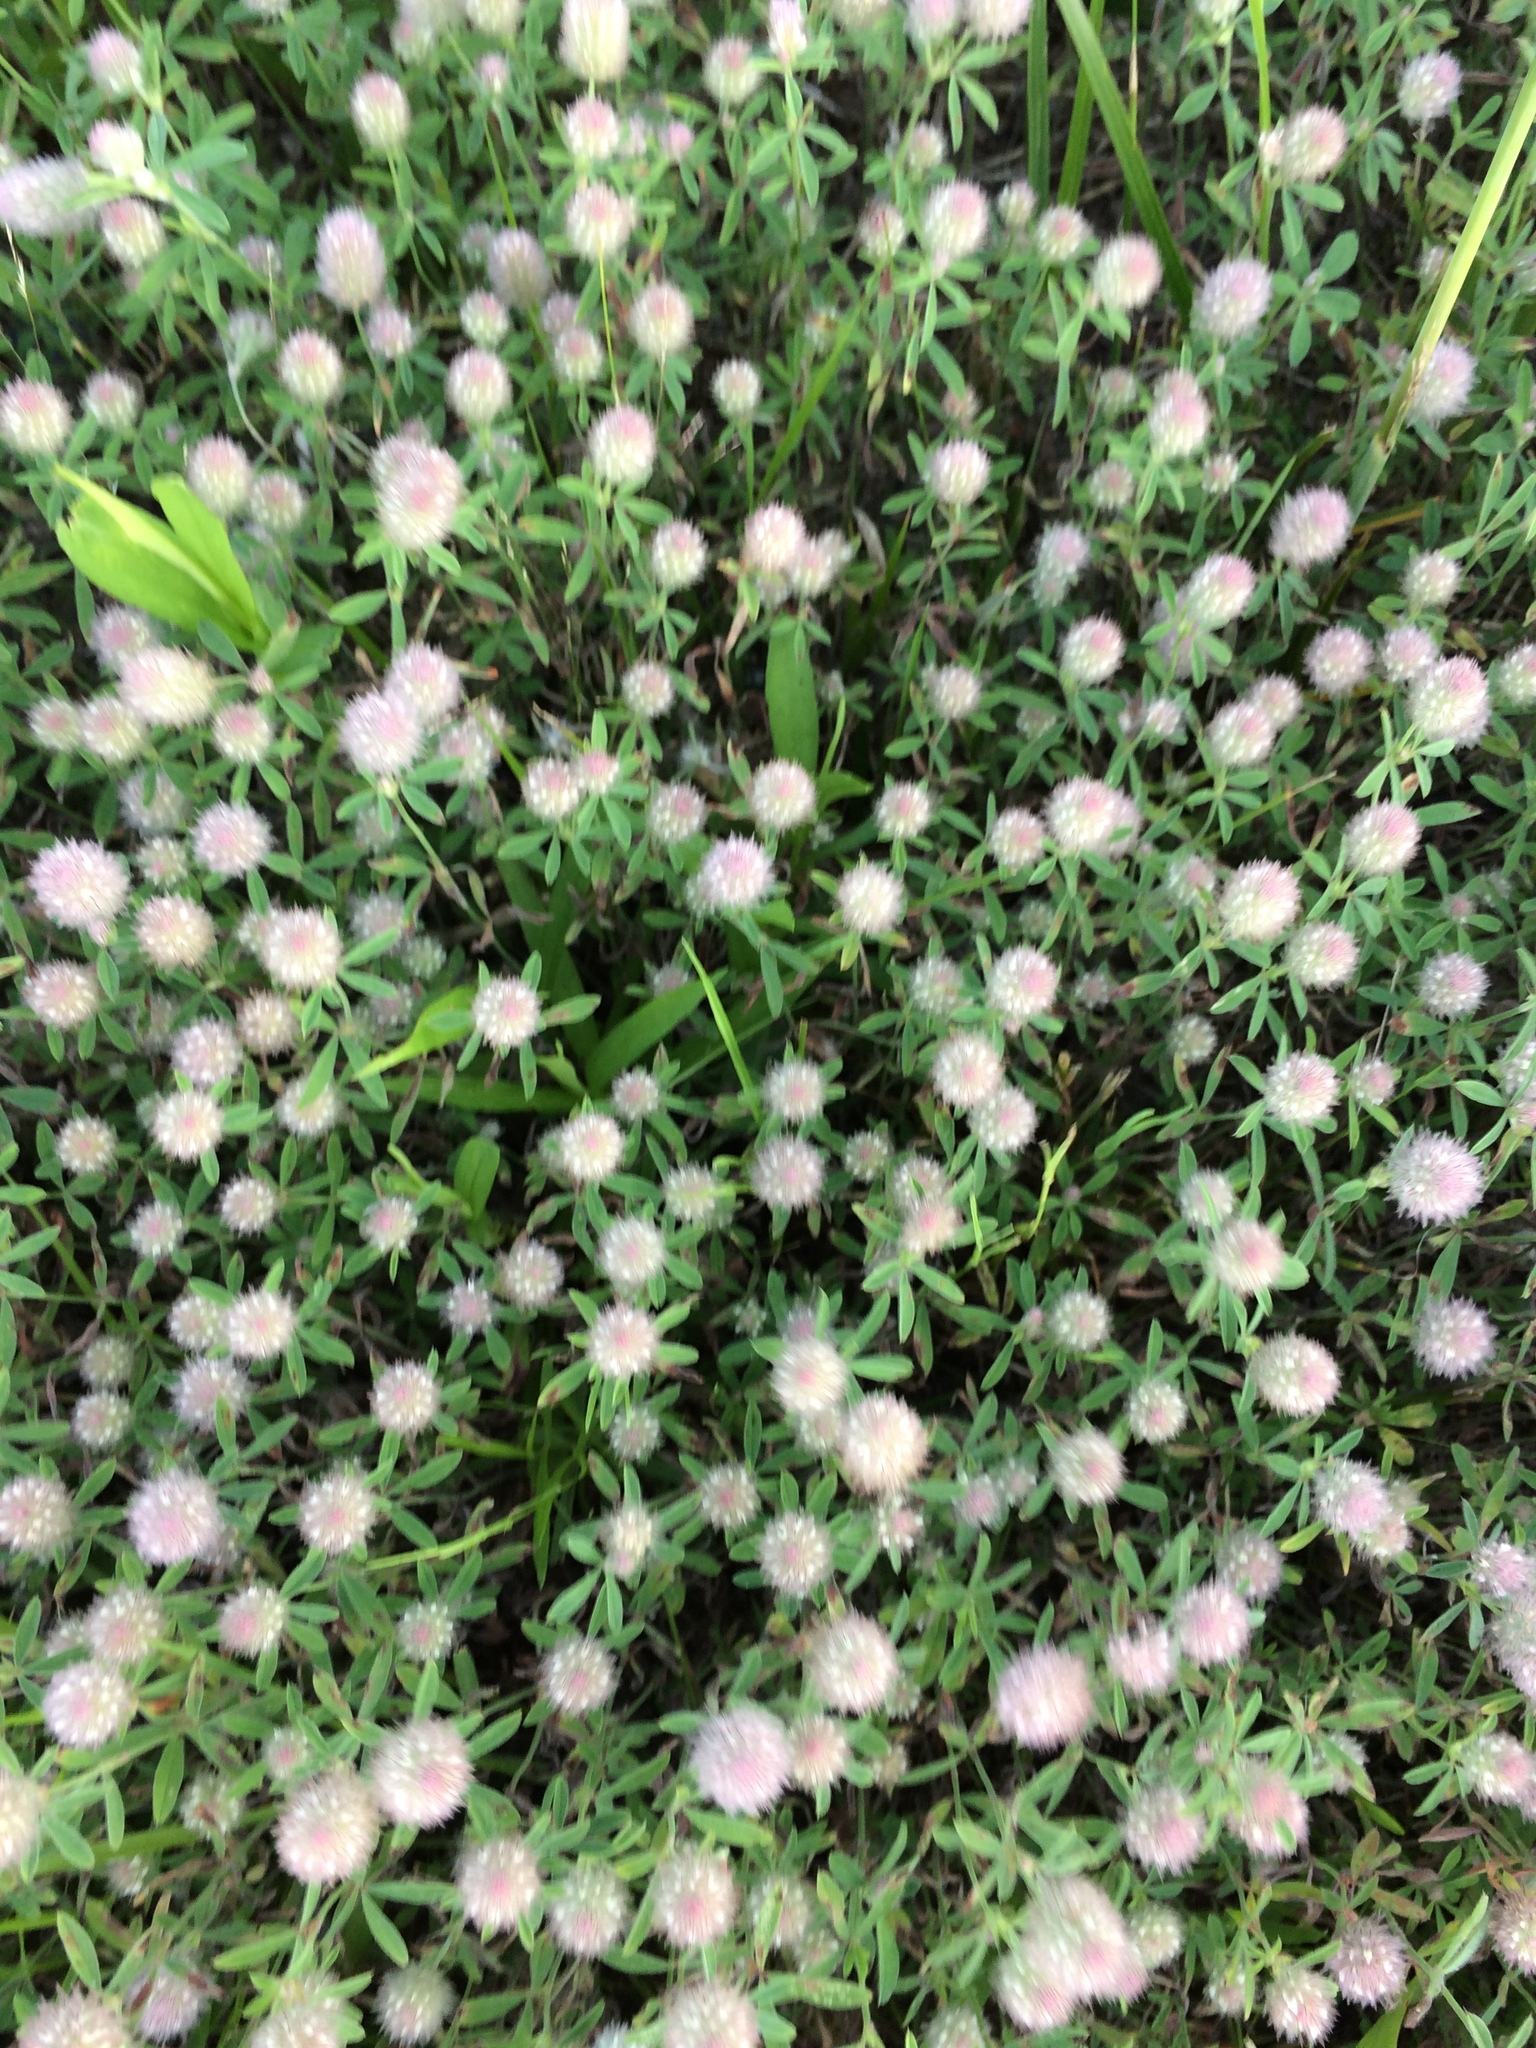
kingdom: Plantae
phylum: Tracheophyta
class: Magnoliopsida
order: Fabales
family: Fabaceae
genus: Trifolium
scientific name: Trifolium arvense
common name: Hare's-foot clover
